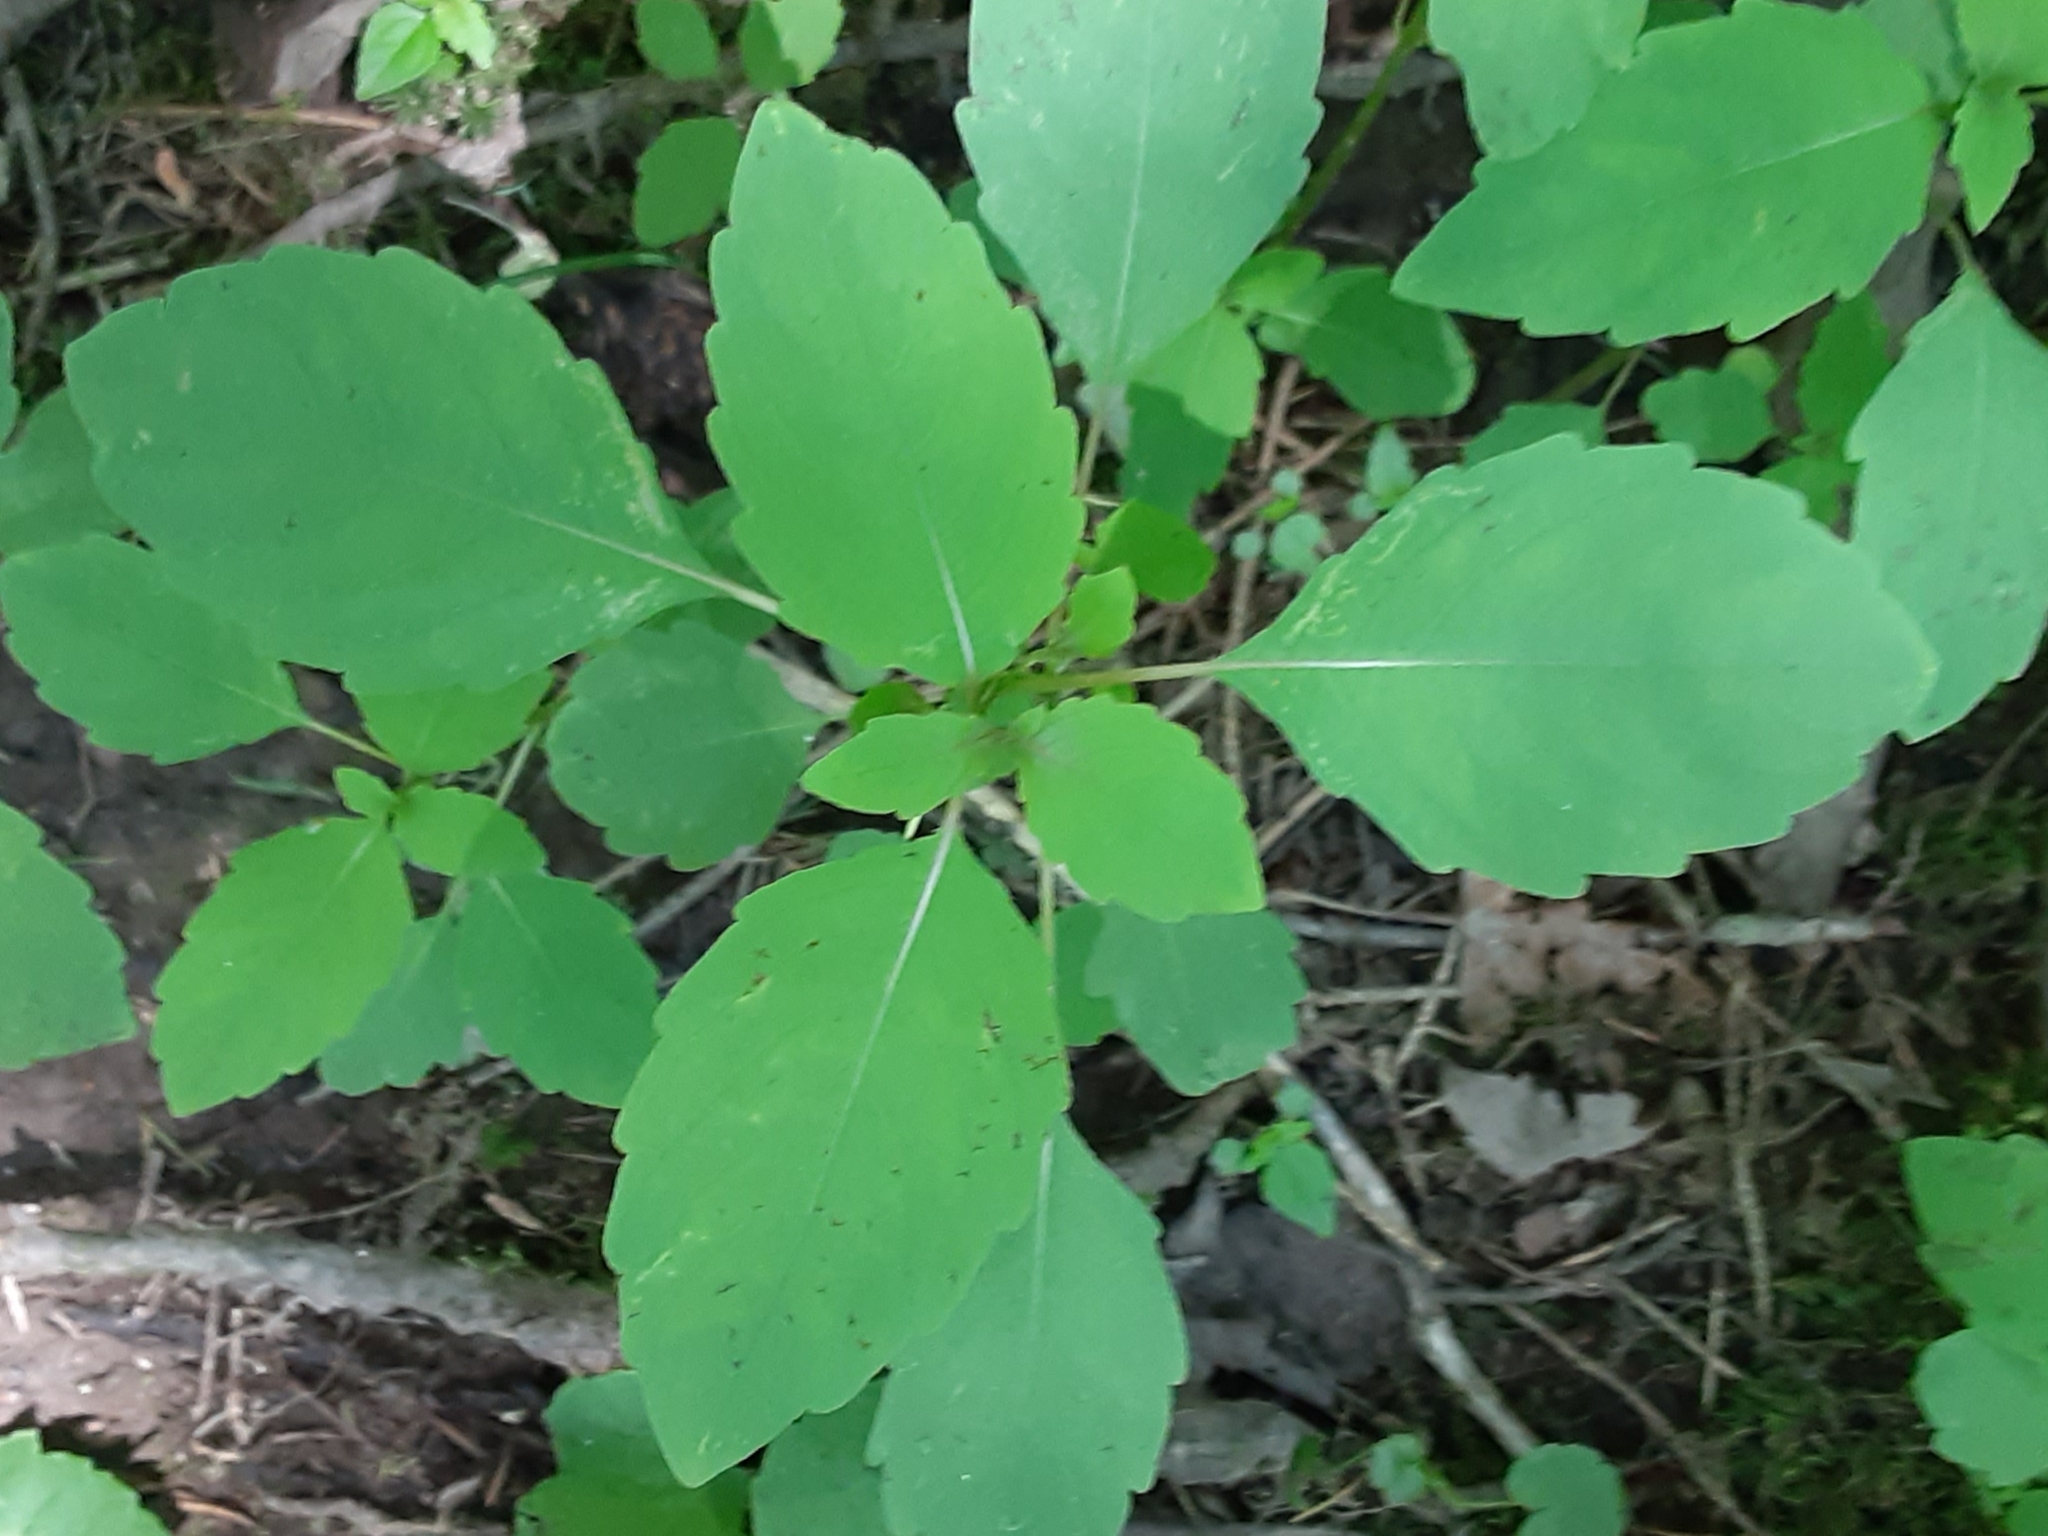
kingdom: Plantae
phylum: Tracheophyta
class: Magnoliopsida
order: Ericales
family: Balsaminaceae
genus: Impatiens
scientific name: Impatiens
